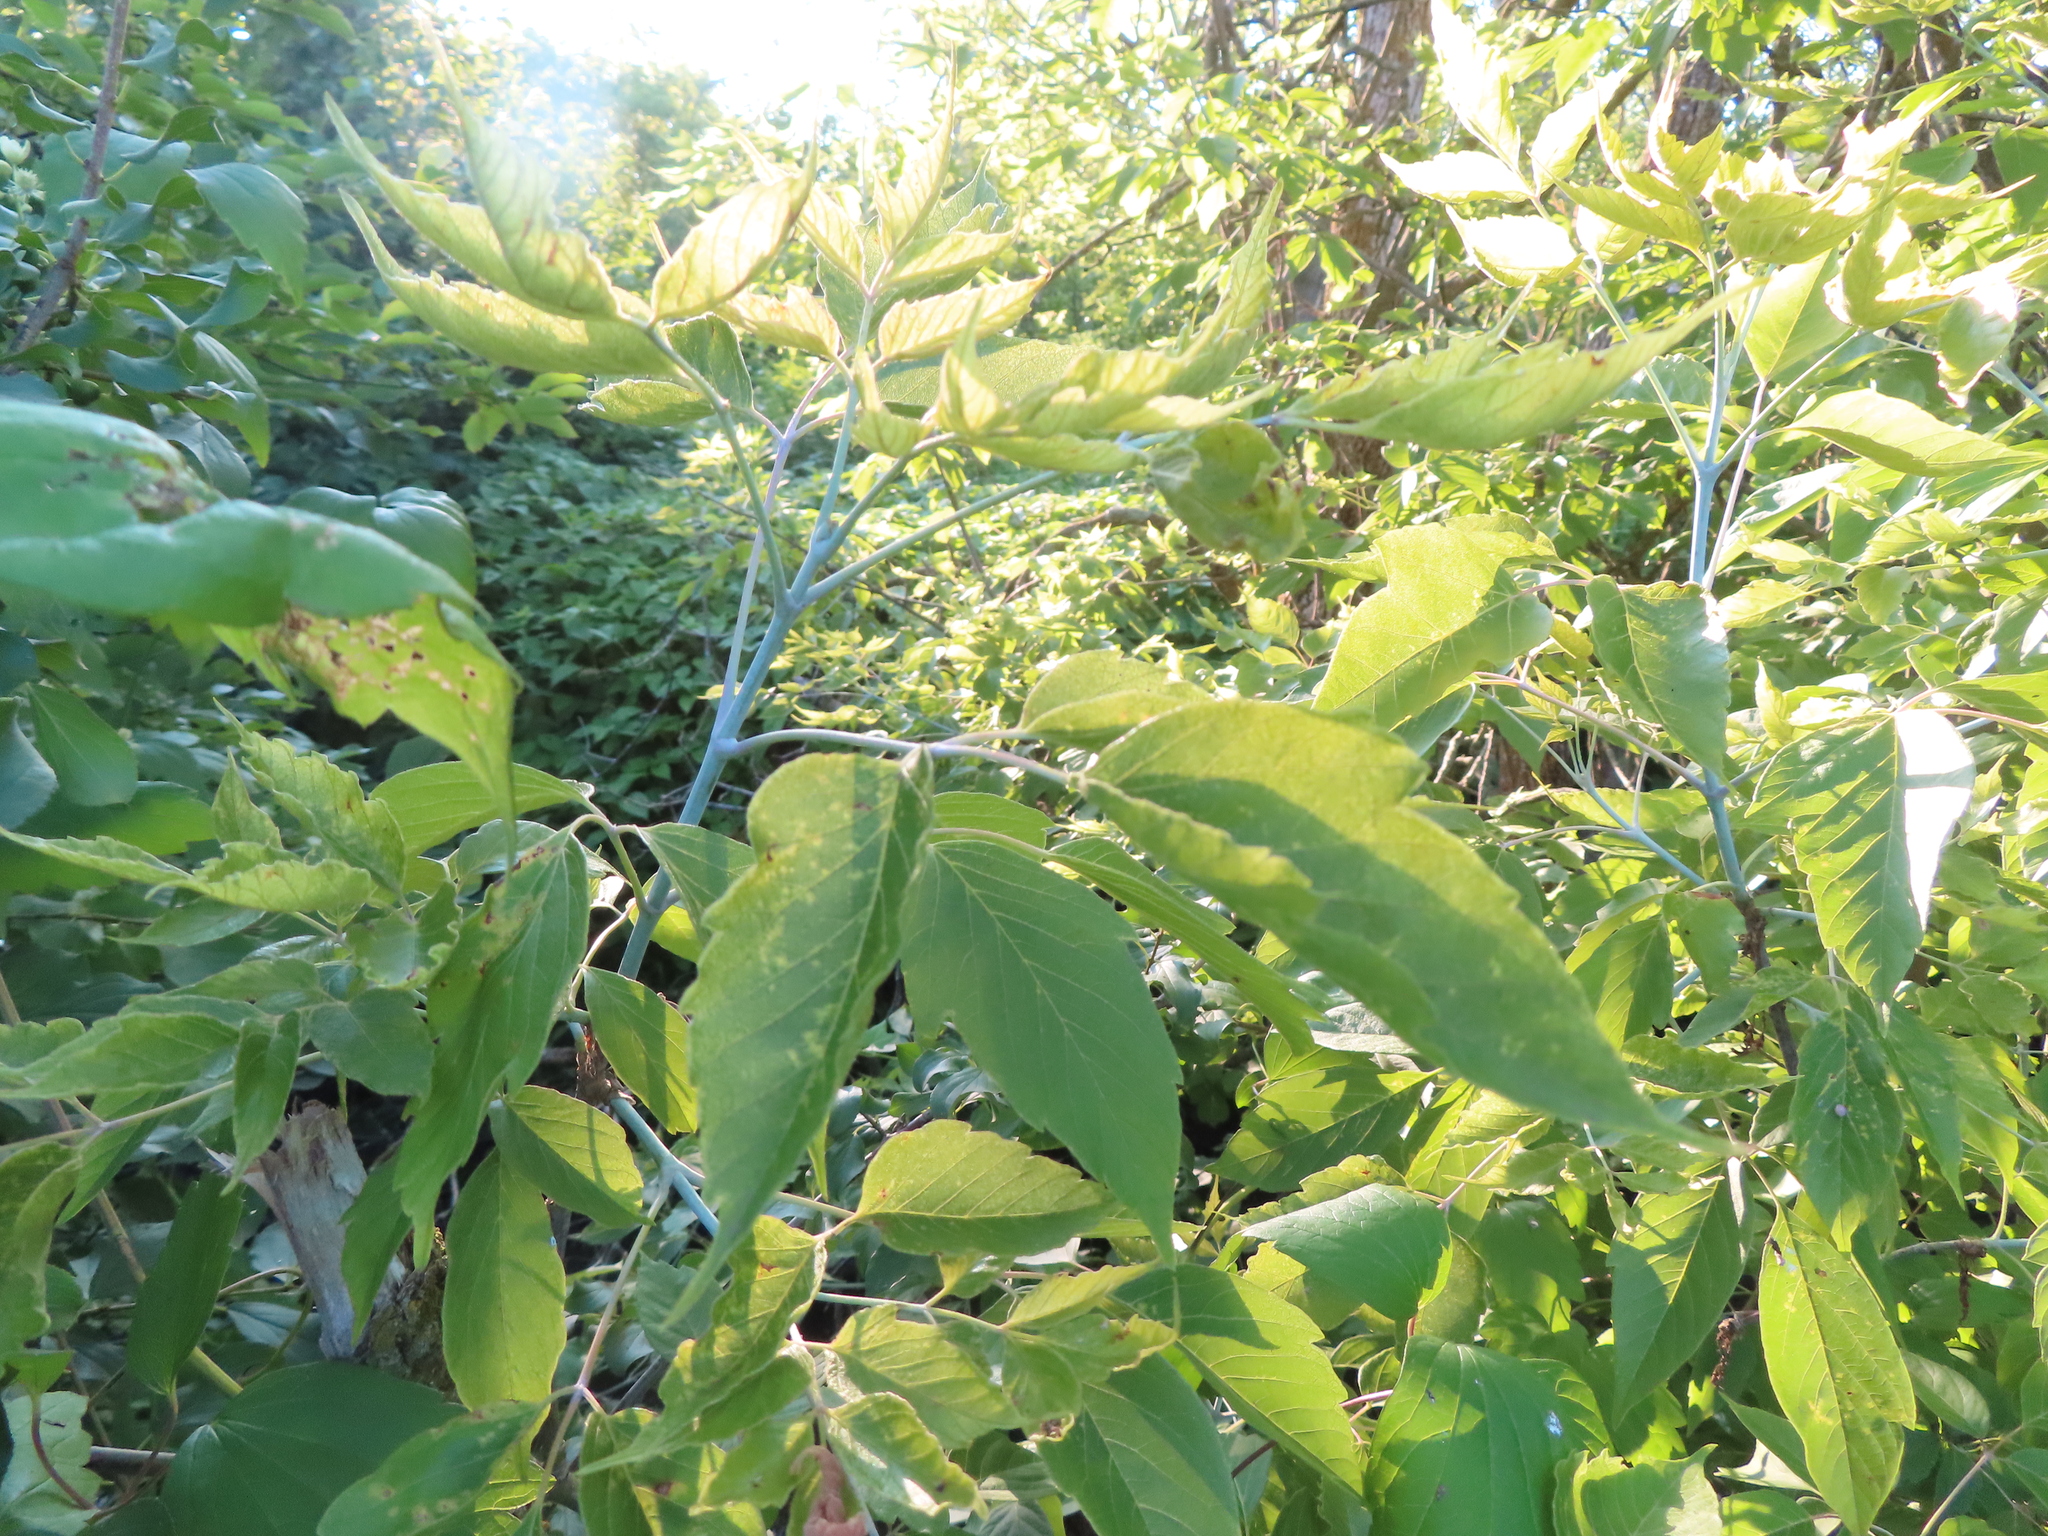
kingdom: Plantae
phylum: Tracheophyta
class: Magnoliopsida
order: Sapindales
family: Sapindaceae
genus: Acer
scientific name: Acer negundo
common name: Ashleaf maple
